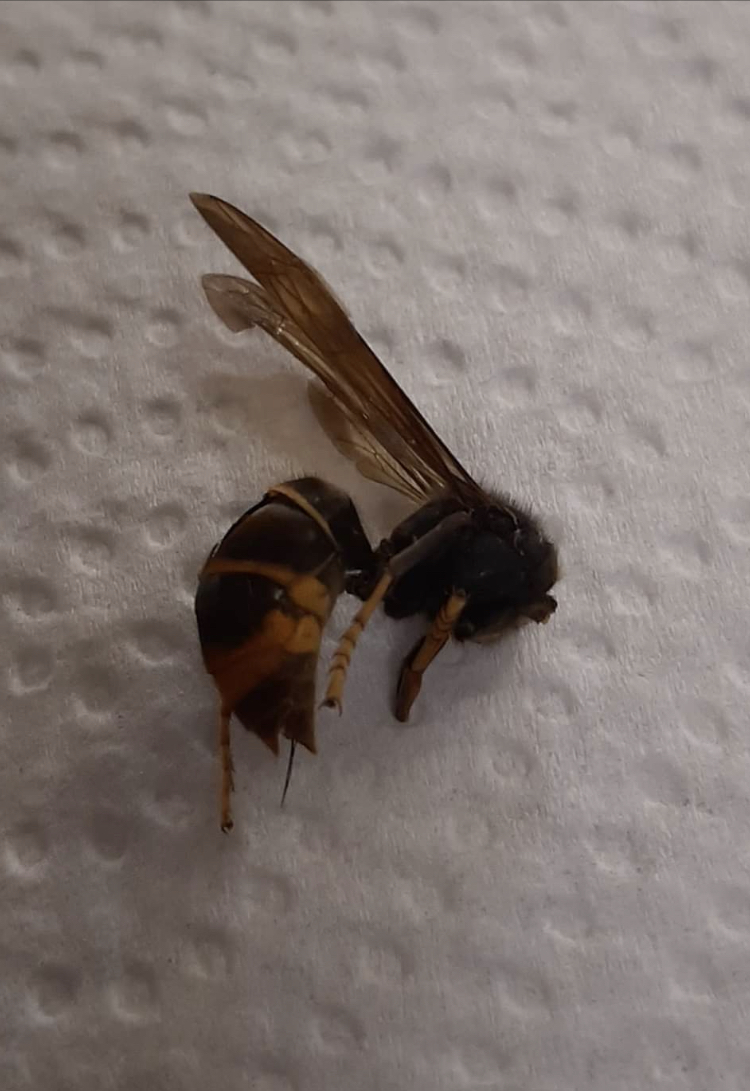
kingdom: Animalia
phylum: Arthropoda
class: Insecta
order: Hymenoptera
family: Vespidae
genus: Vespa
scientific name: Vespa velutina
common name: Asian hornet
